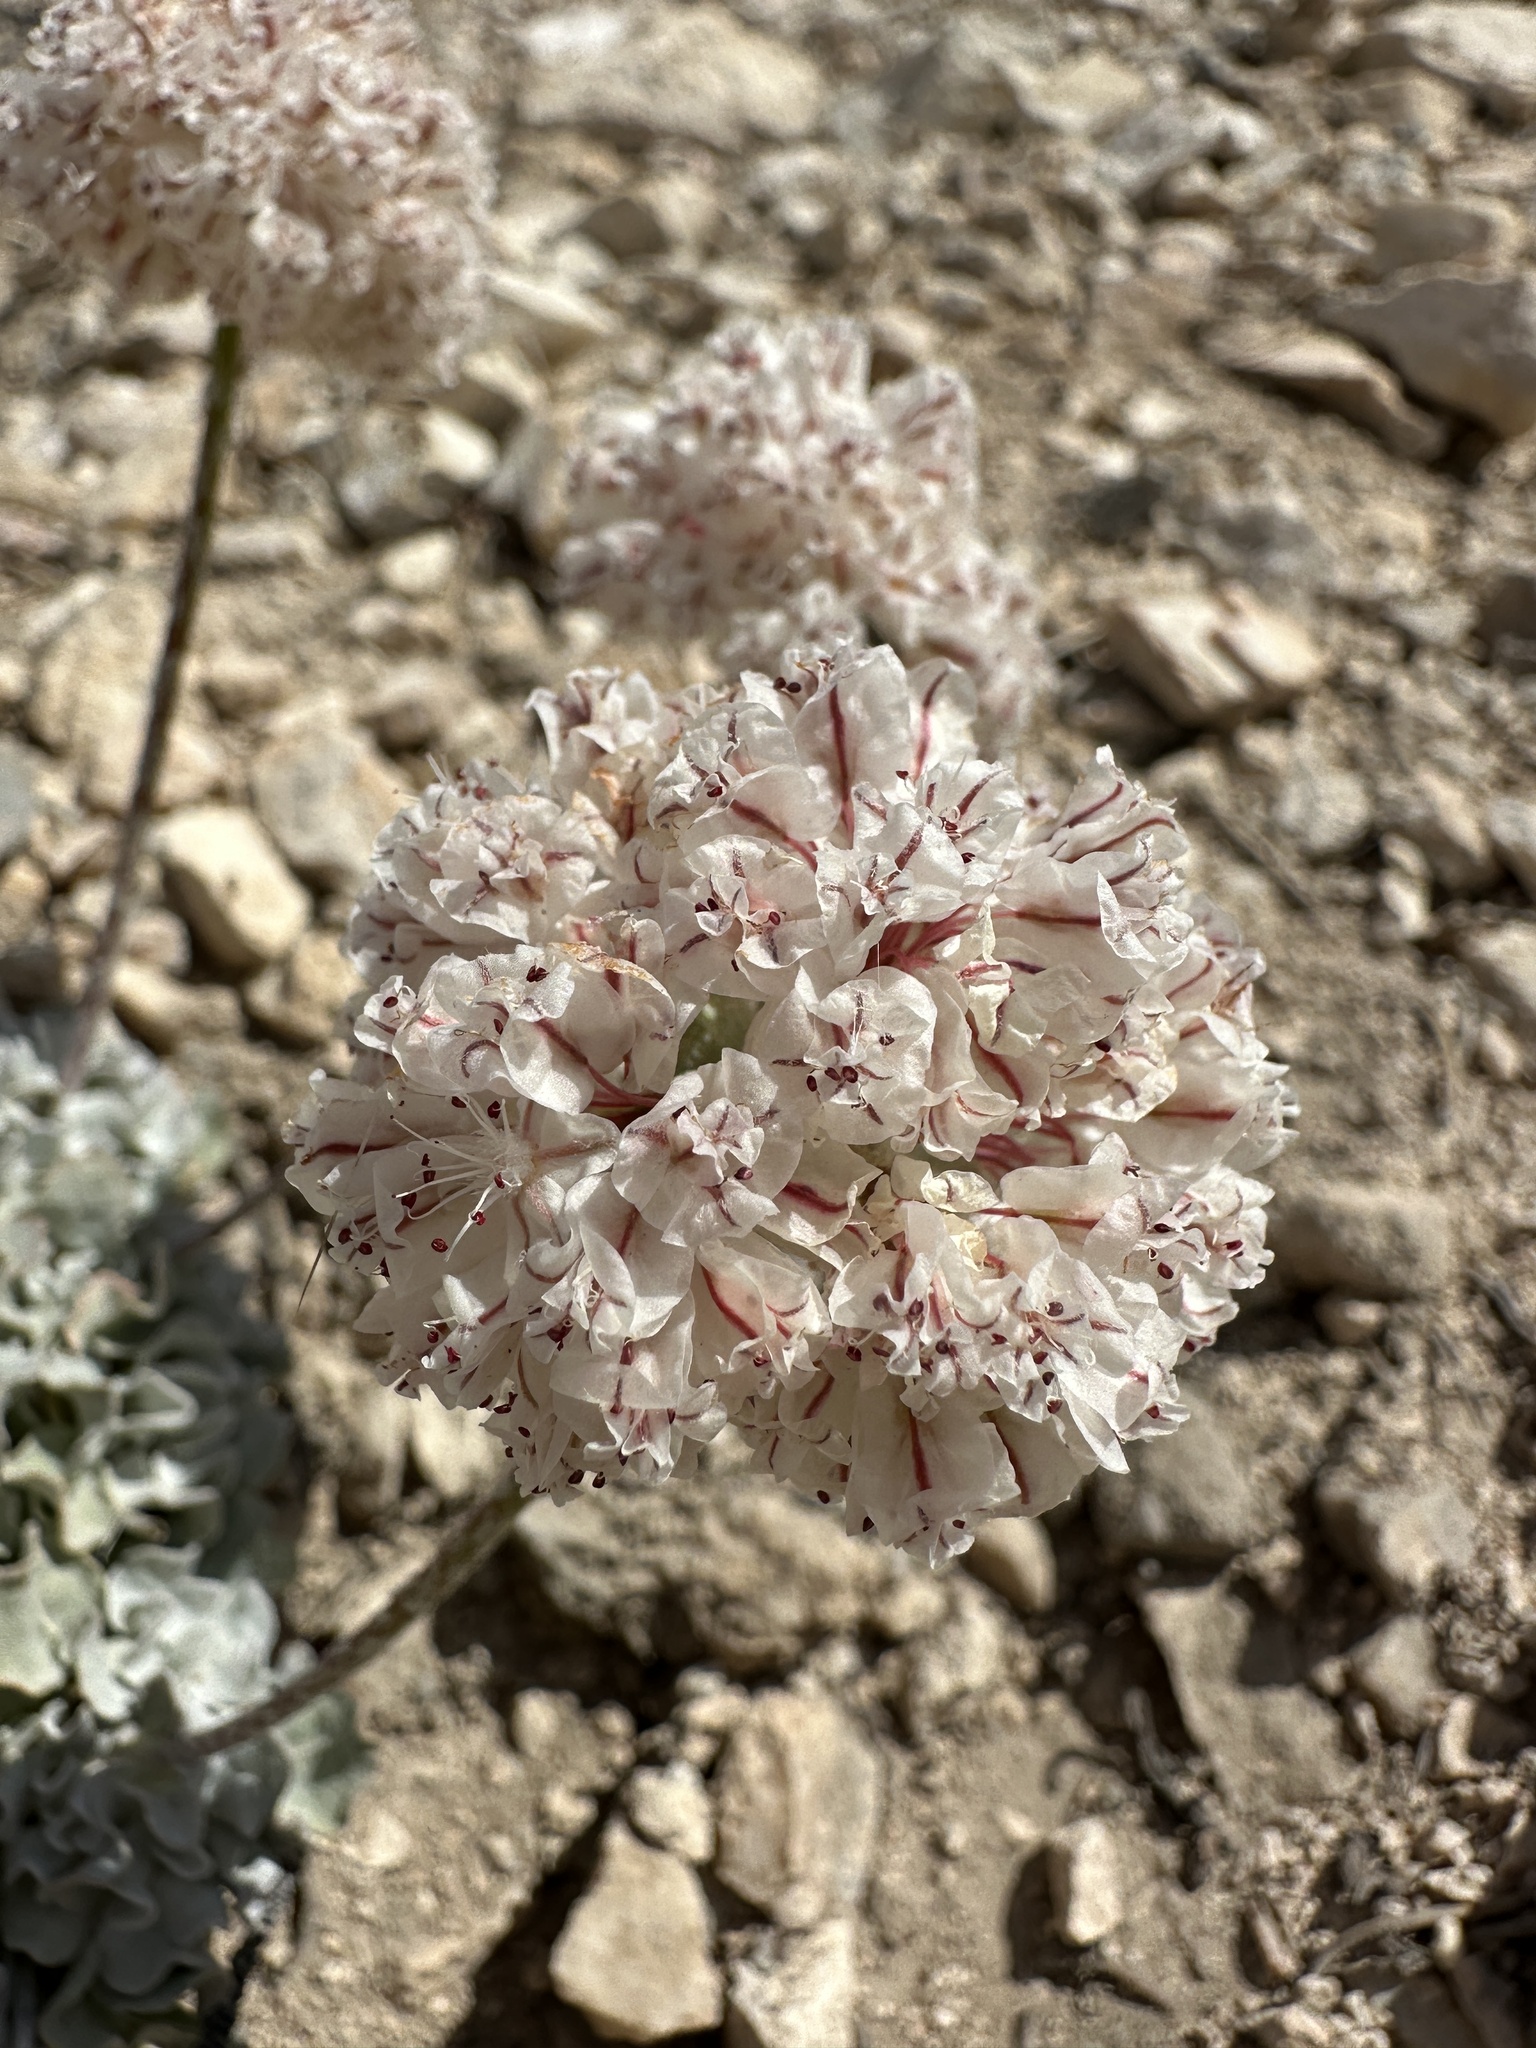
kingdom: Plantae
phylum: Tracheophyta
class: Magnoliopsida
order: Caryophyllales
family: Polygonaceae
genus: Eriogonum
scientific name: Eriogonum ovalifolium
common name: Cushion buckwheat
